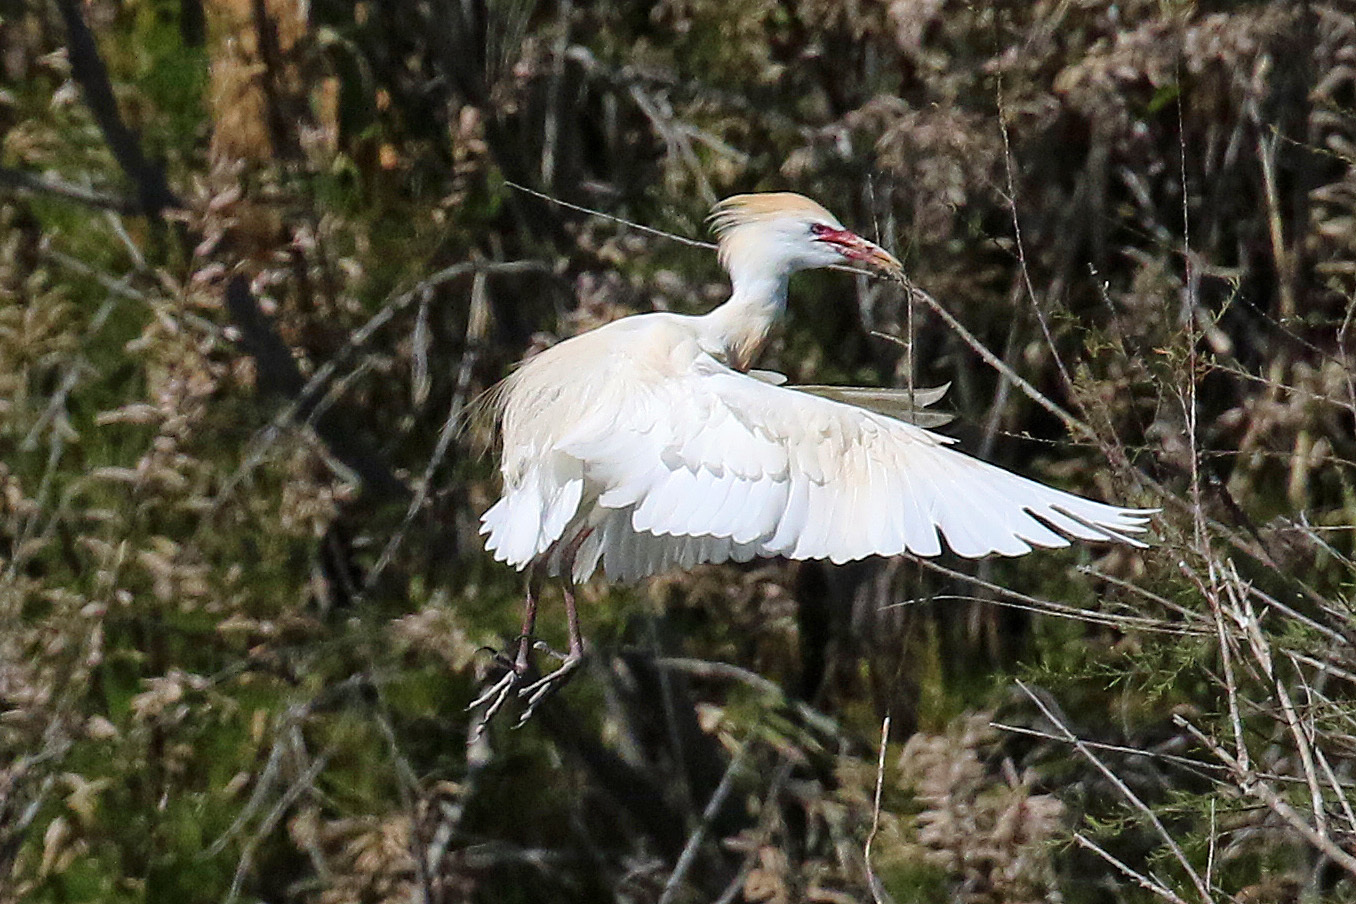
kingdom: Animalia
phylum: Chordata
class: Aves
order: Pelecaniformes
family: Ardeidae
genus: Bubulcus
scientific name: Bubulcus ibis
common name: Cattle egret
